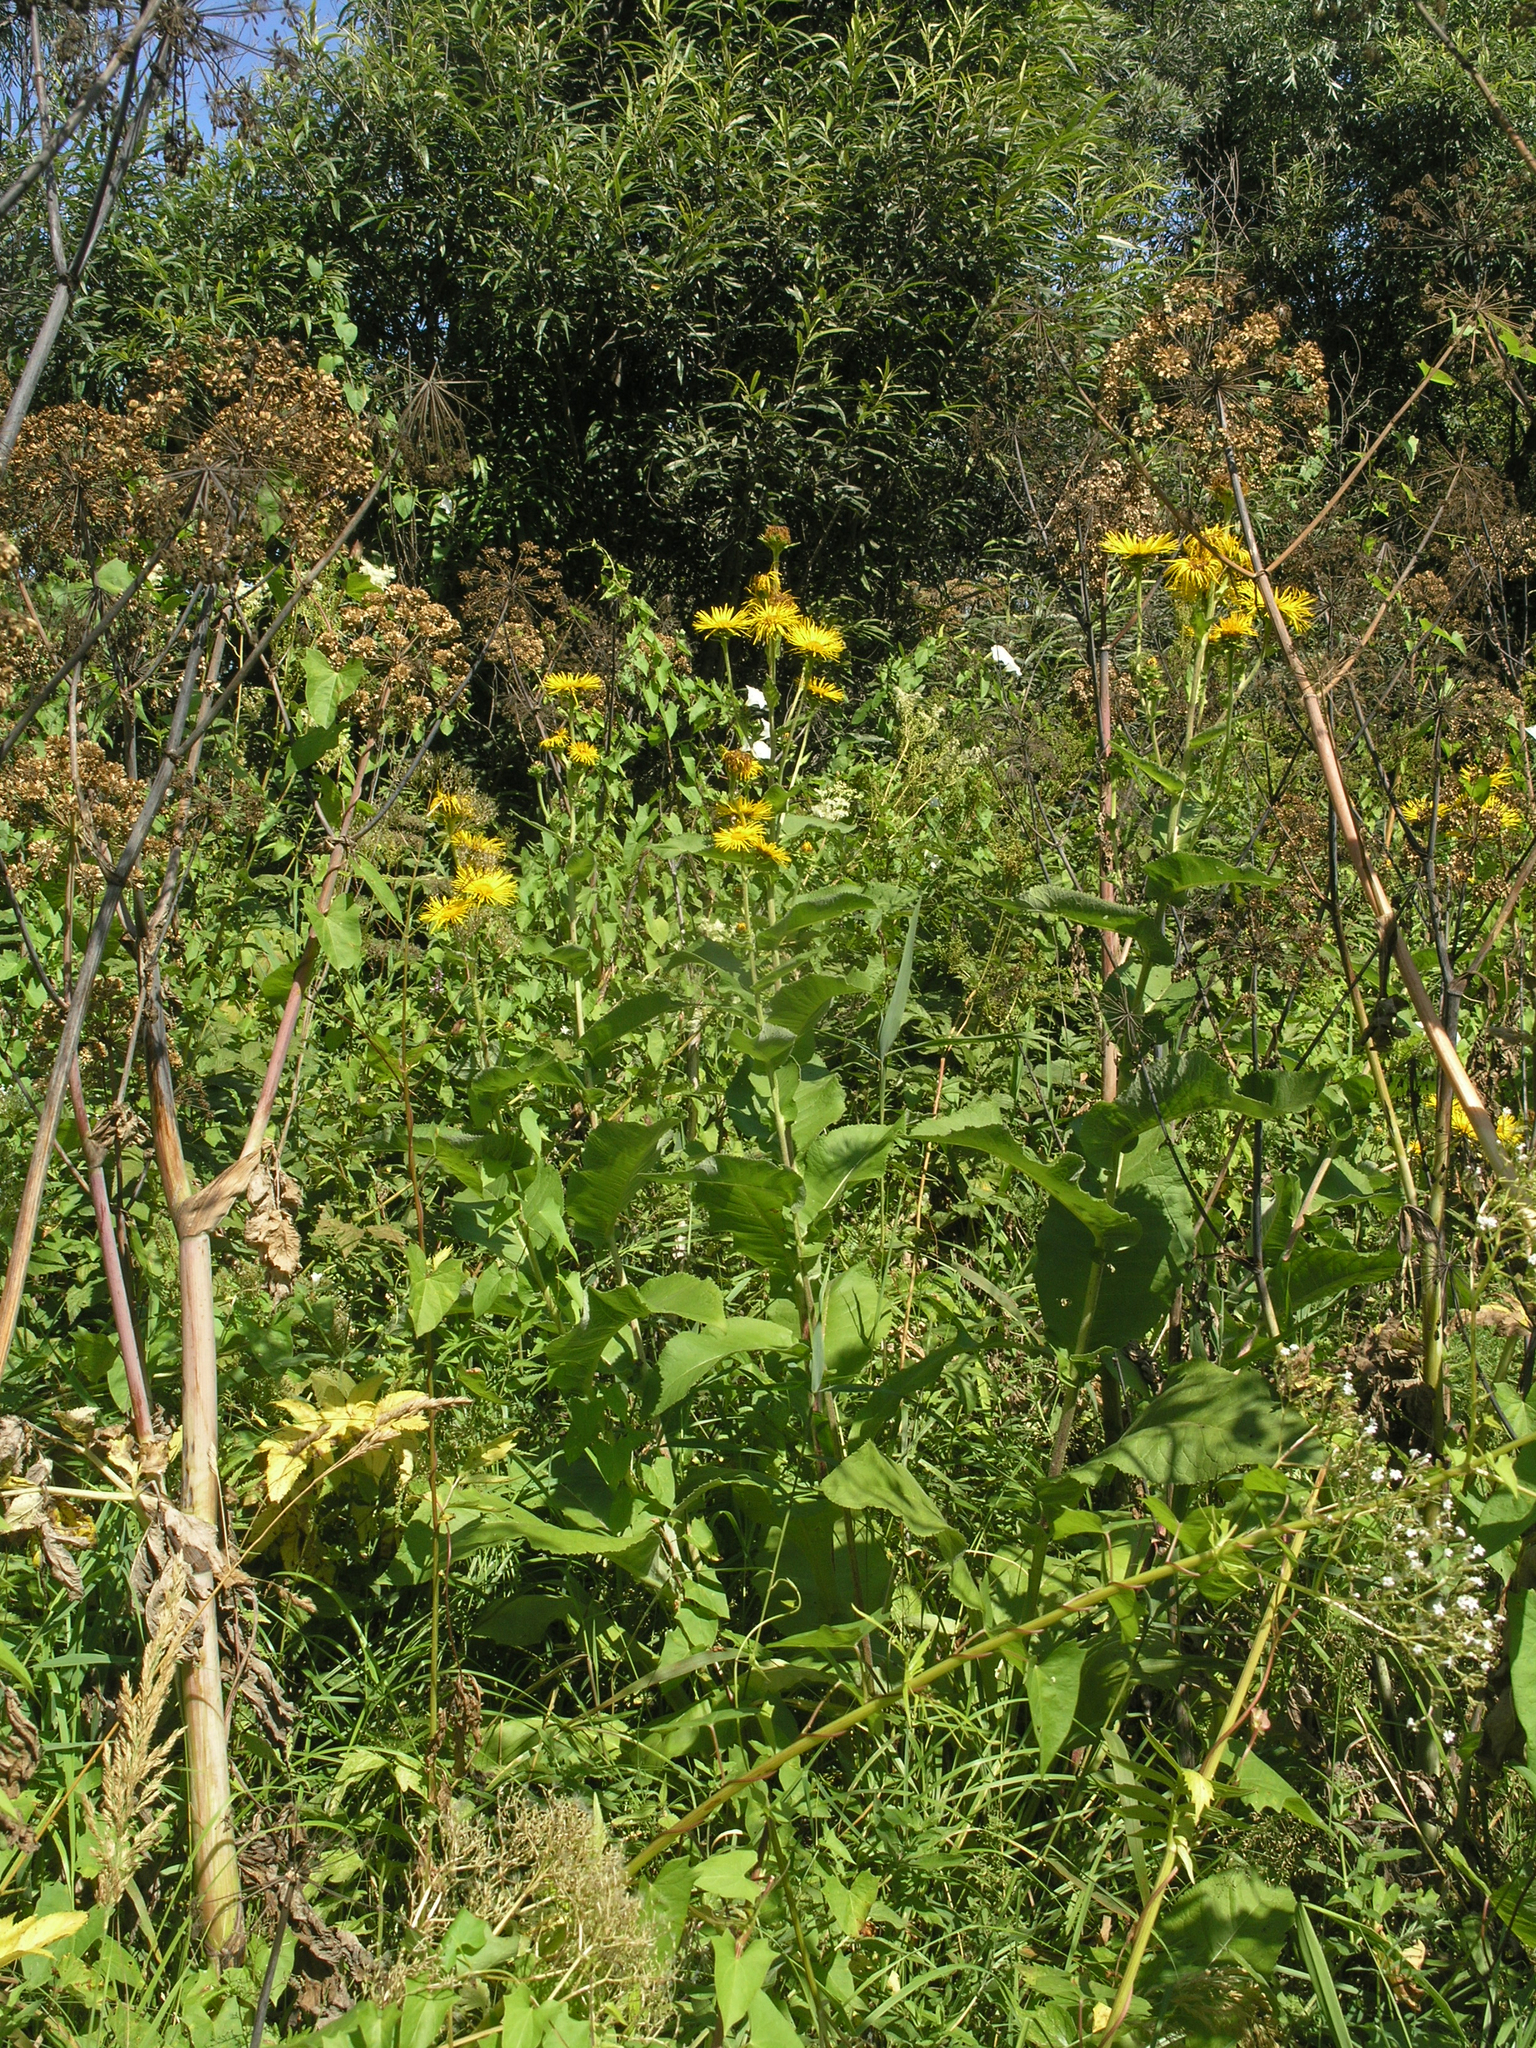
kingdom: Plantae
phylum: Tracheophyta
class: Magnoliopsida
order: Asterales
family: Asteraceae
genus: Inula
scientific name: Inula helenium
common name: Elecampane
